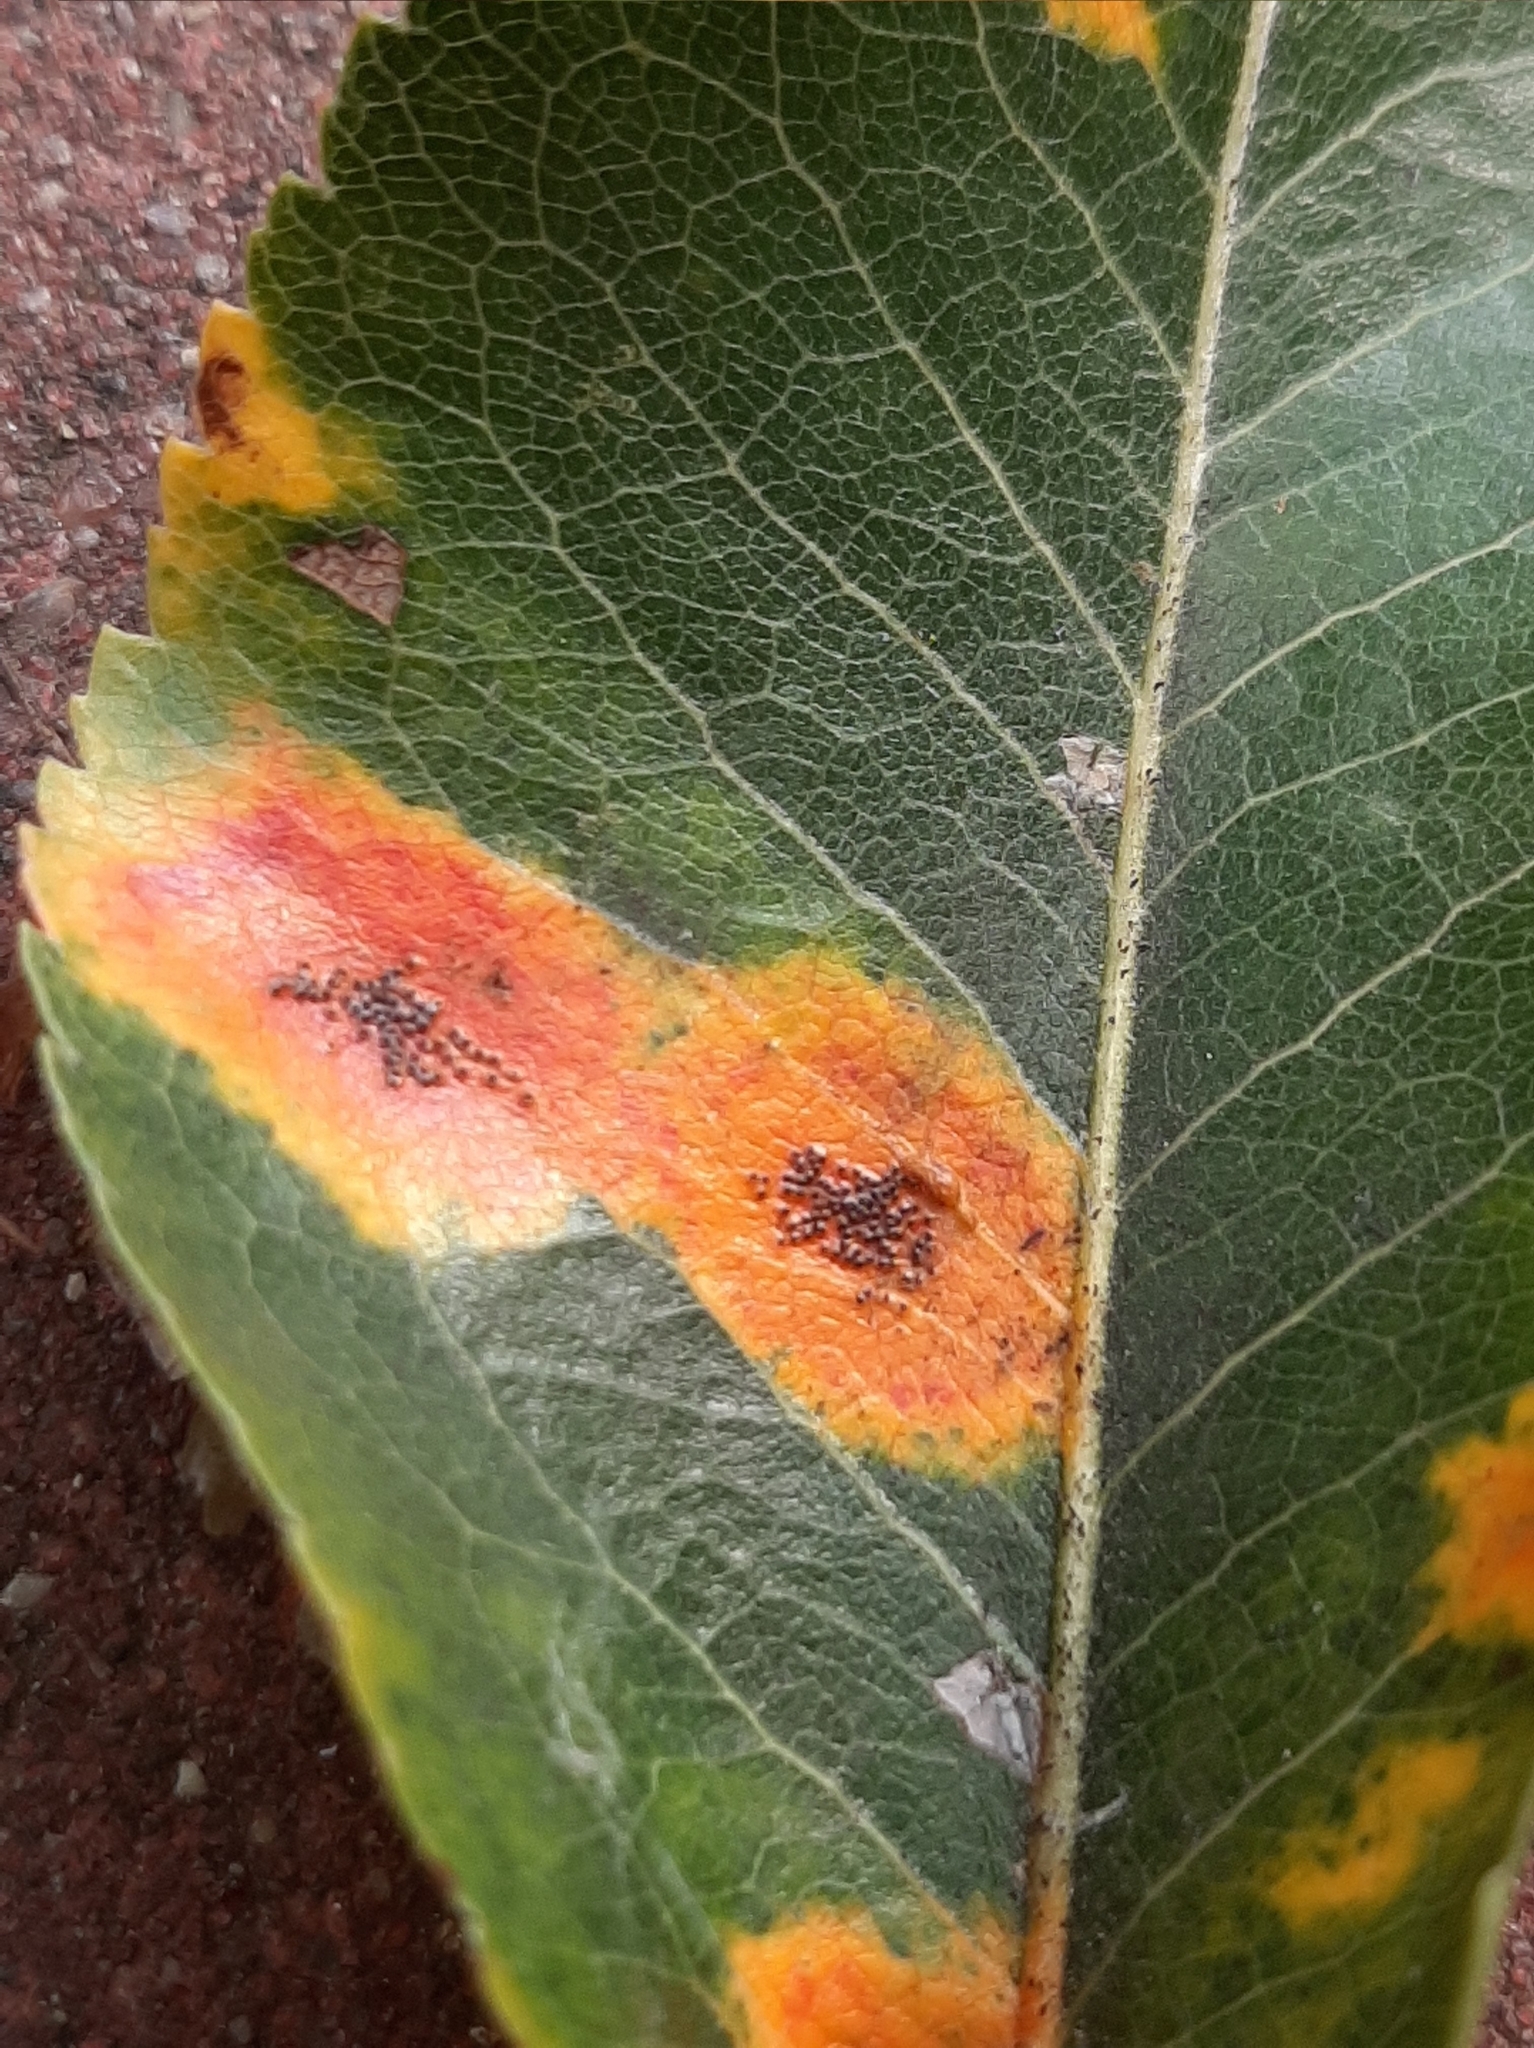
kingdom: Fungi
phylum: Basidiomycota
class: Pucciniomycetes
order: Pucciniales
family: Gymnosporangiaceae
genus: Gymnosporangium
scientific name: Gymnosporangium sabinae
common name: Pear trellis rust fungus
